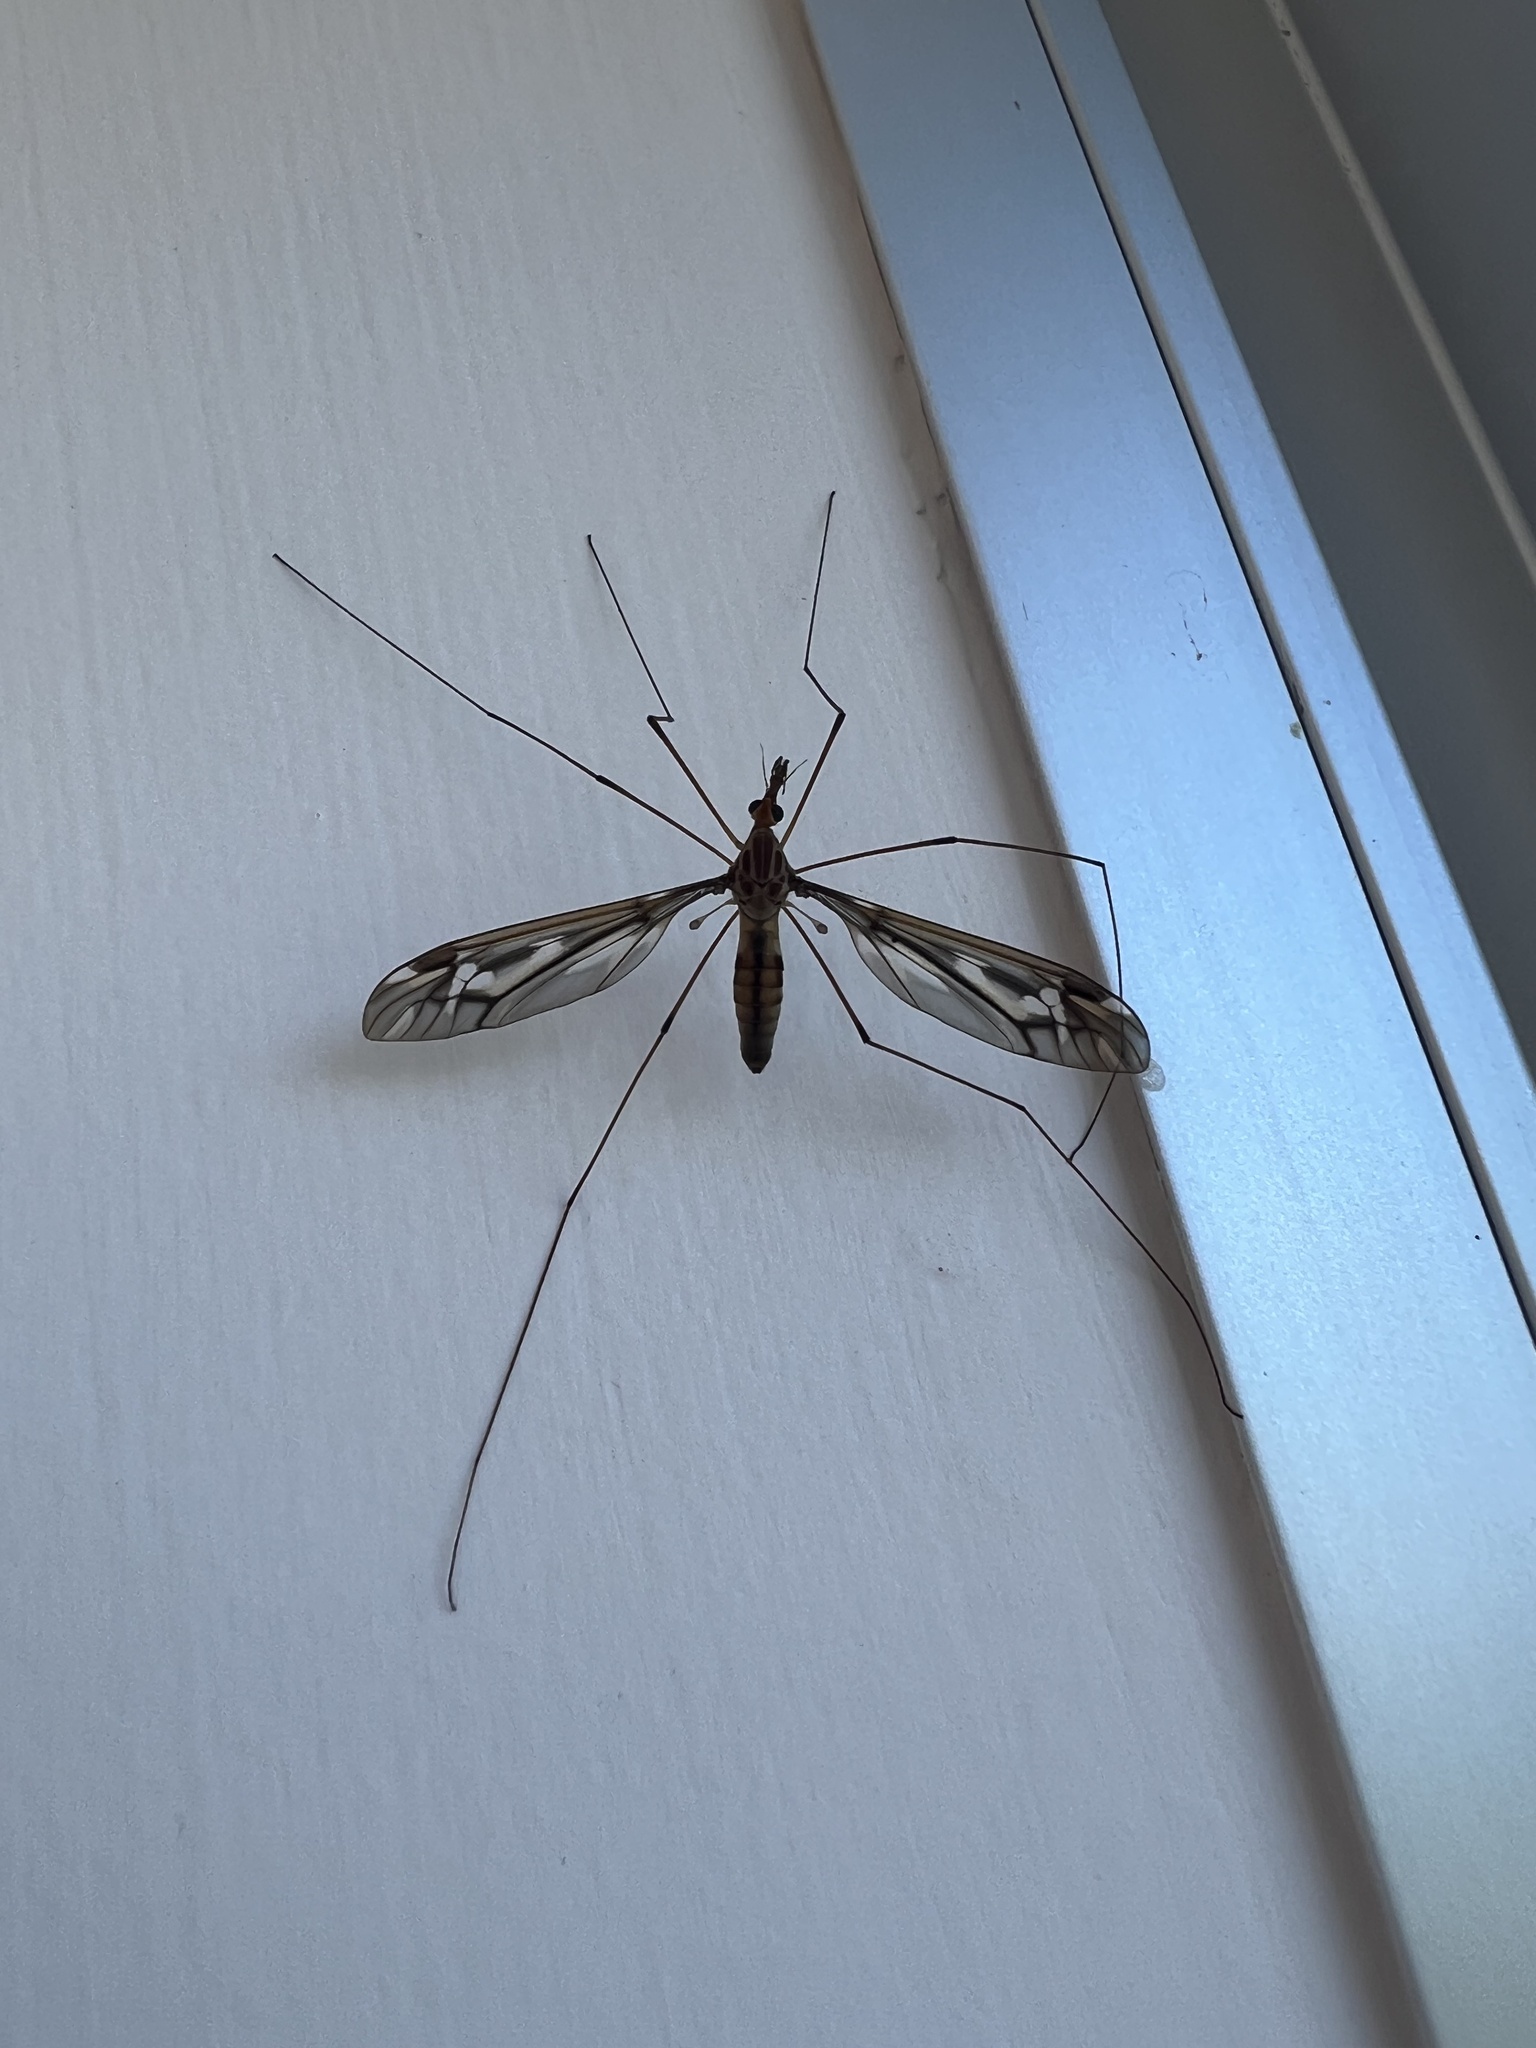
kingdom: Animalia
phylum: Arthropoda
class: Insecta
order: Diptera
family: Tipulidae
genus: Leptotarsus
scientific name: Leptotarsus huttoni
